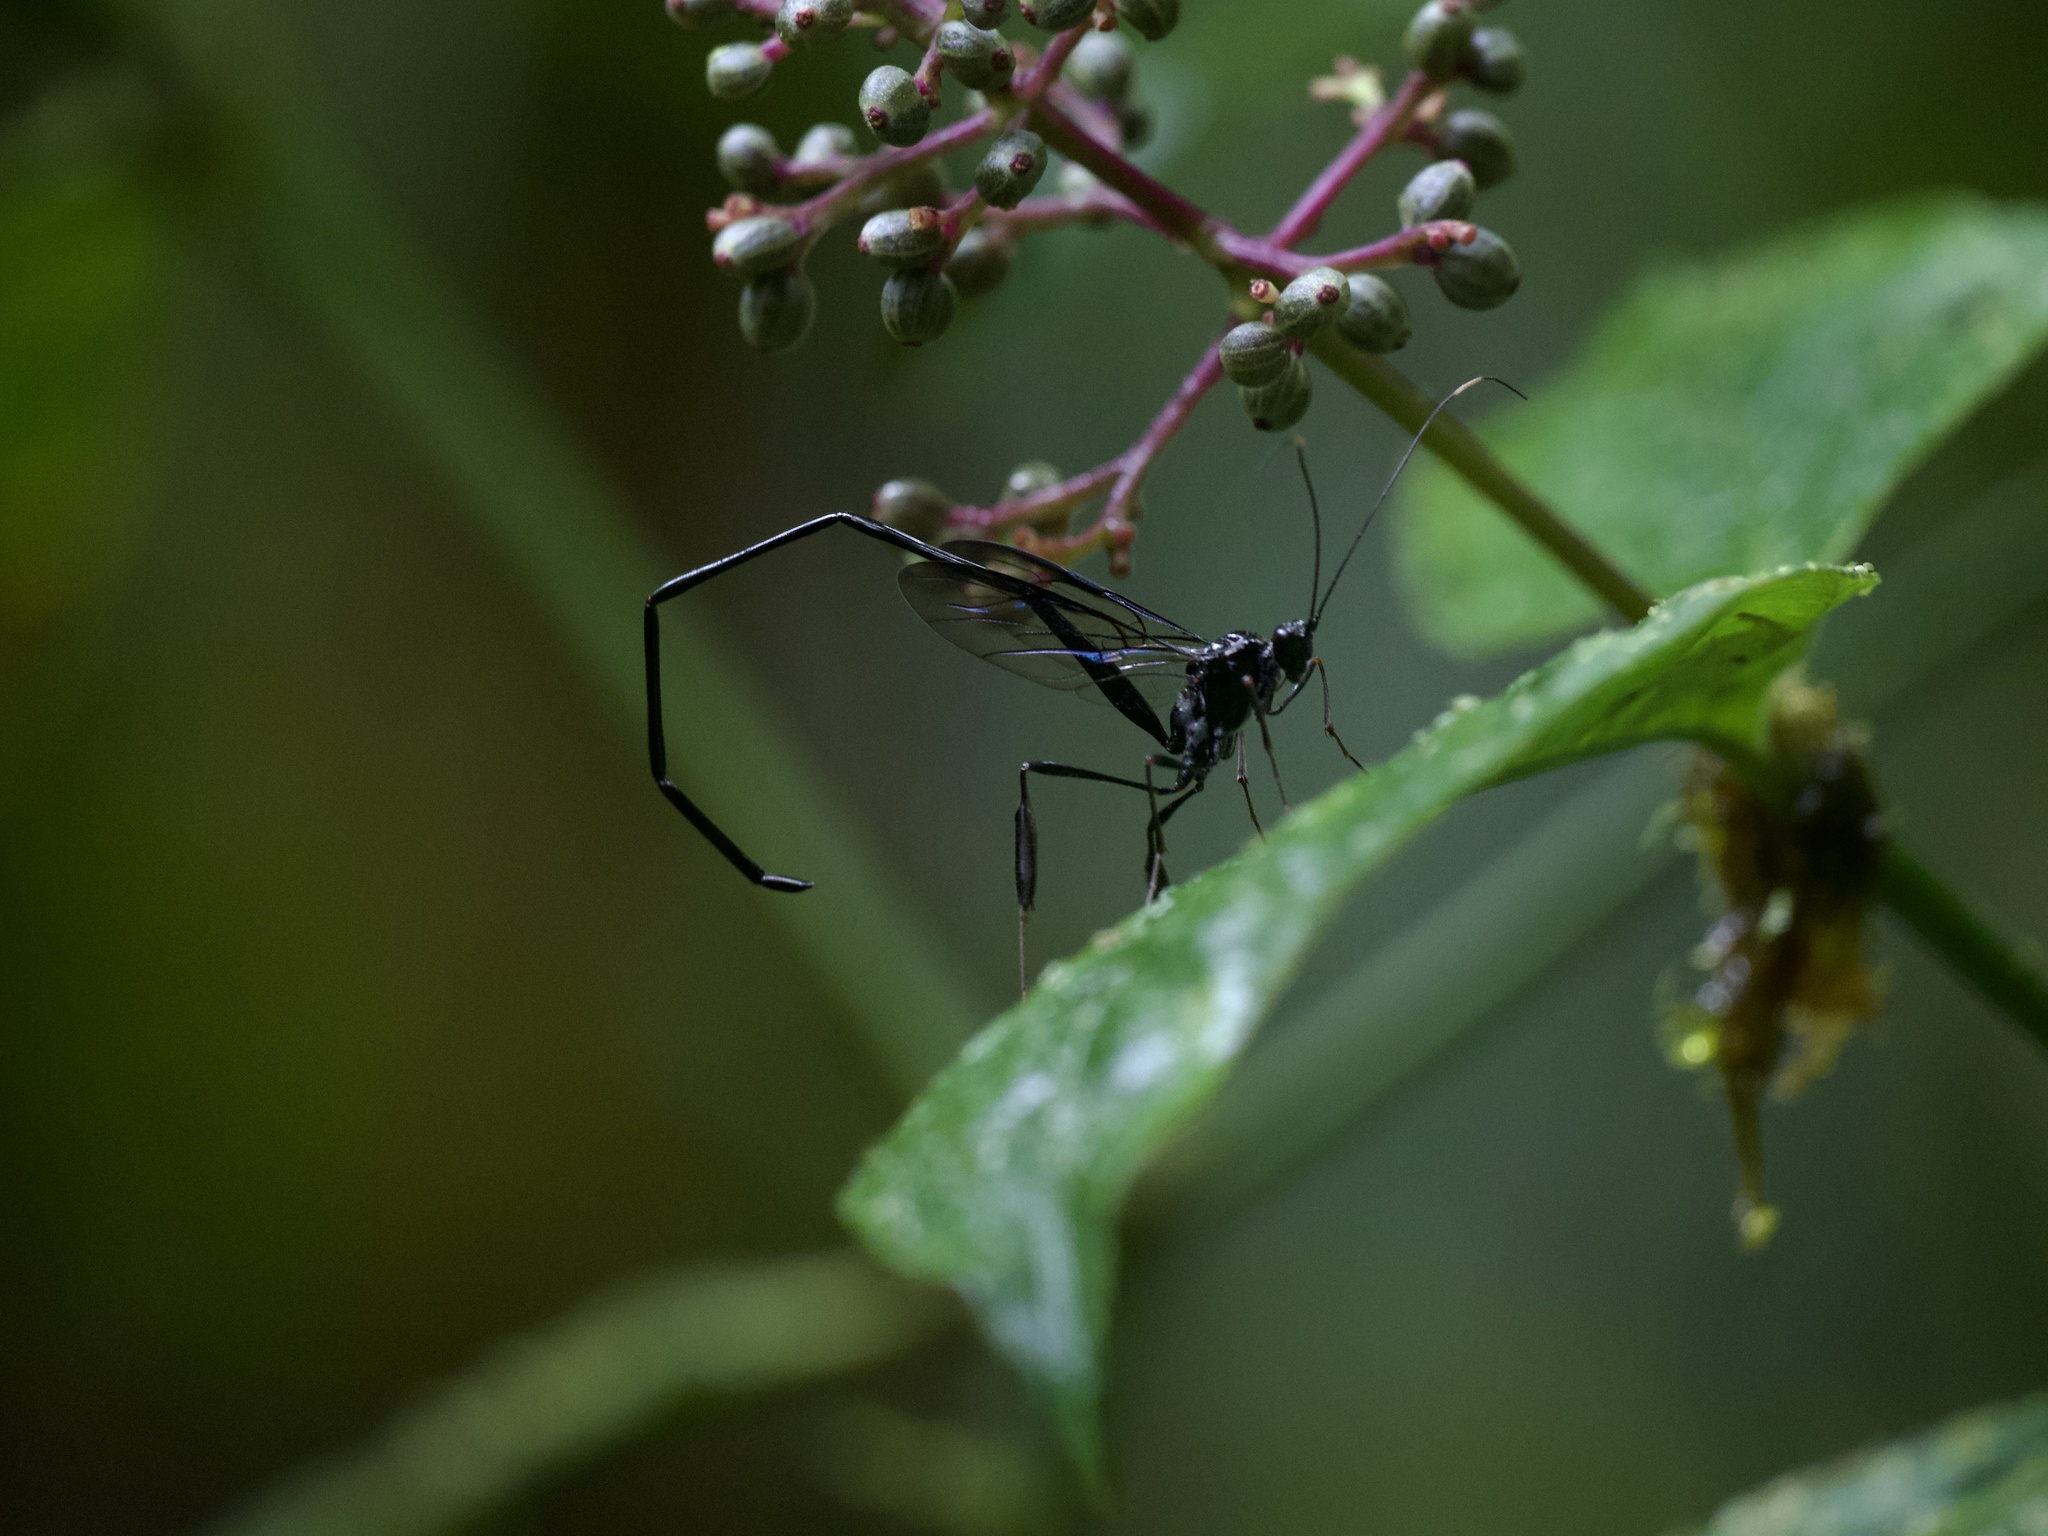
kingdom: Animalia
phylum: Arthropoda
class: Insecta
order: Hymenoptera
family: Pelecinidae
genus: Pelecinus
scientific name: Pelecinus polyturator
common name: American pelecinid wasp
